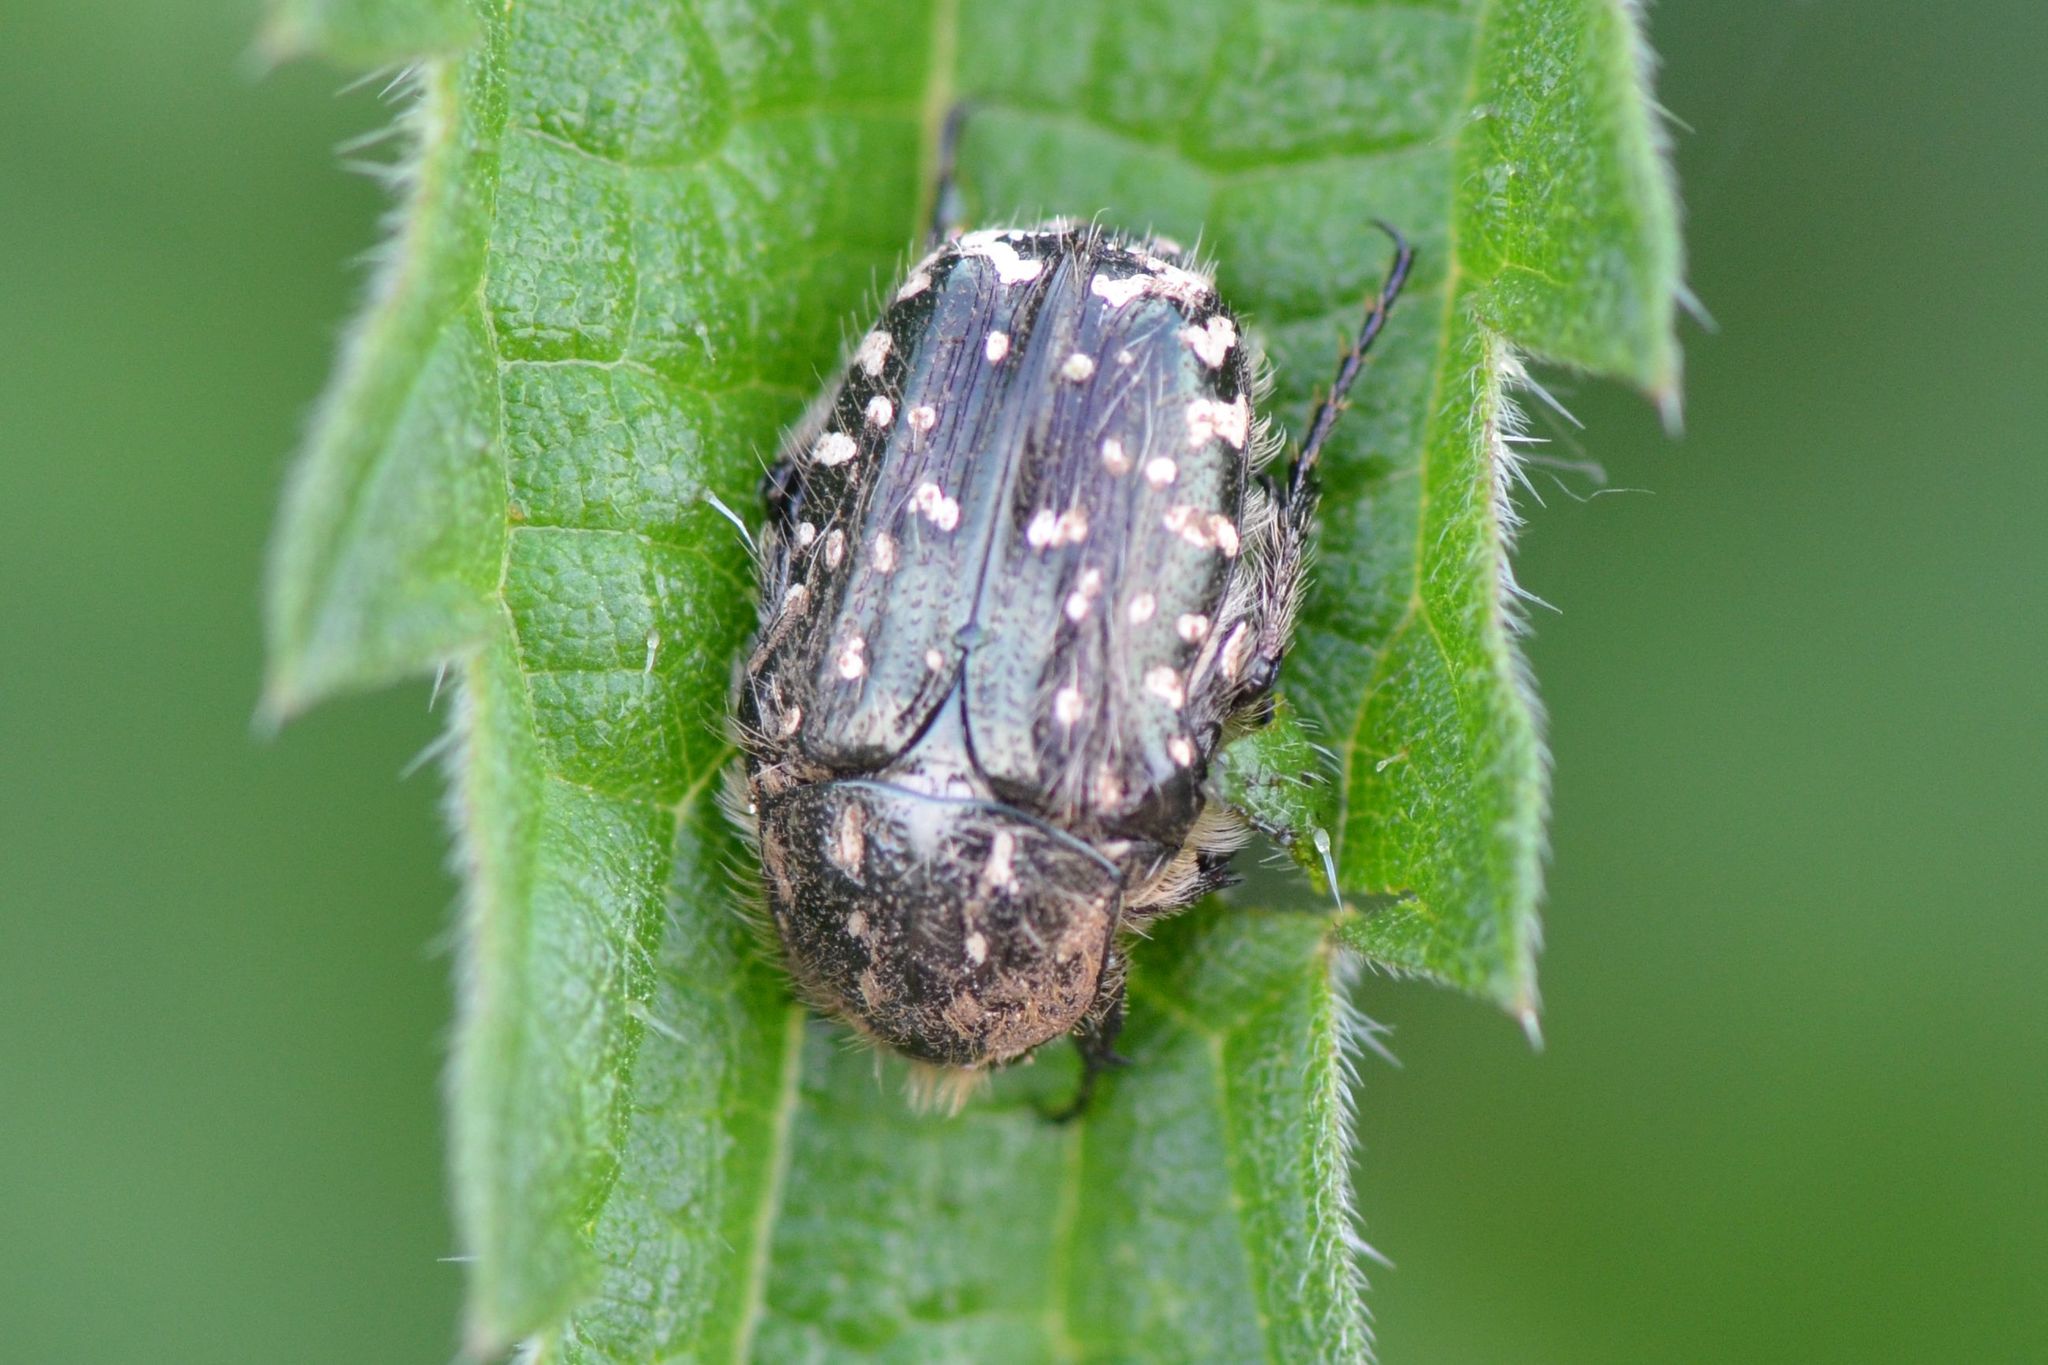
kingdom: Animalia
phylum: Arthropoda
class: Insecta
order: Coleoptera
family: Scarabaeidae
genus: Oxythyrea
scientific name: Oxythyrea funesta
